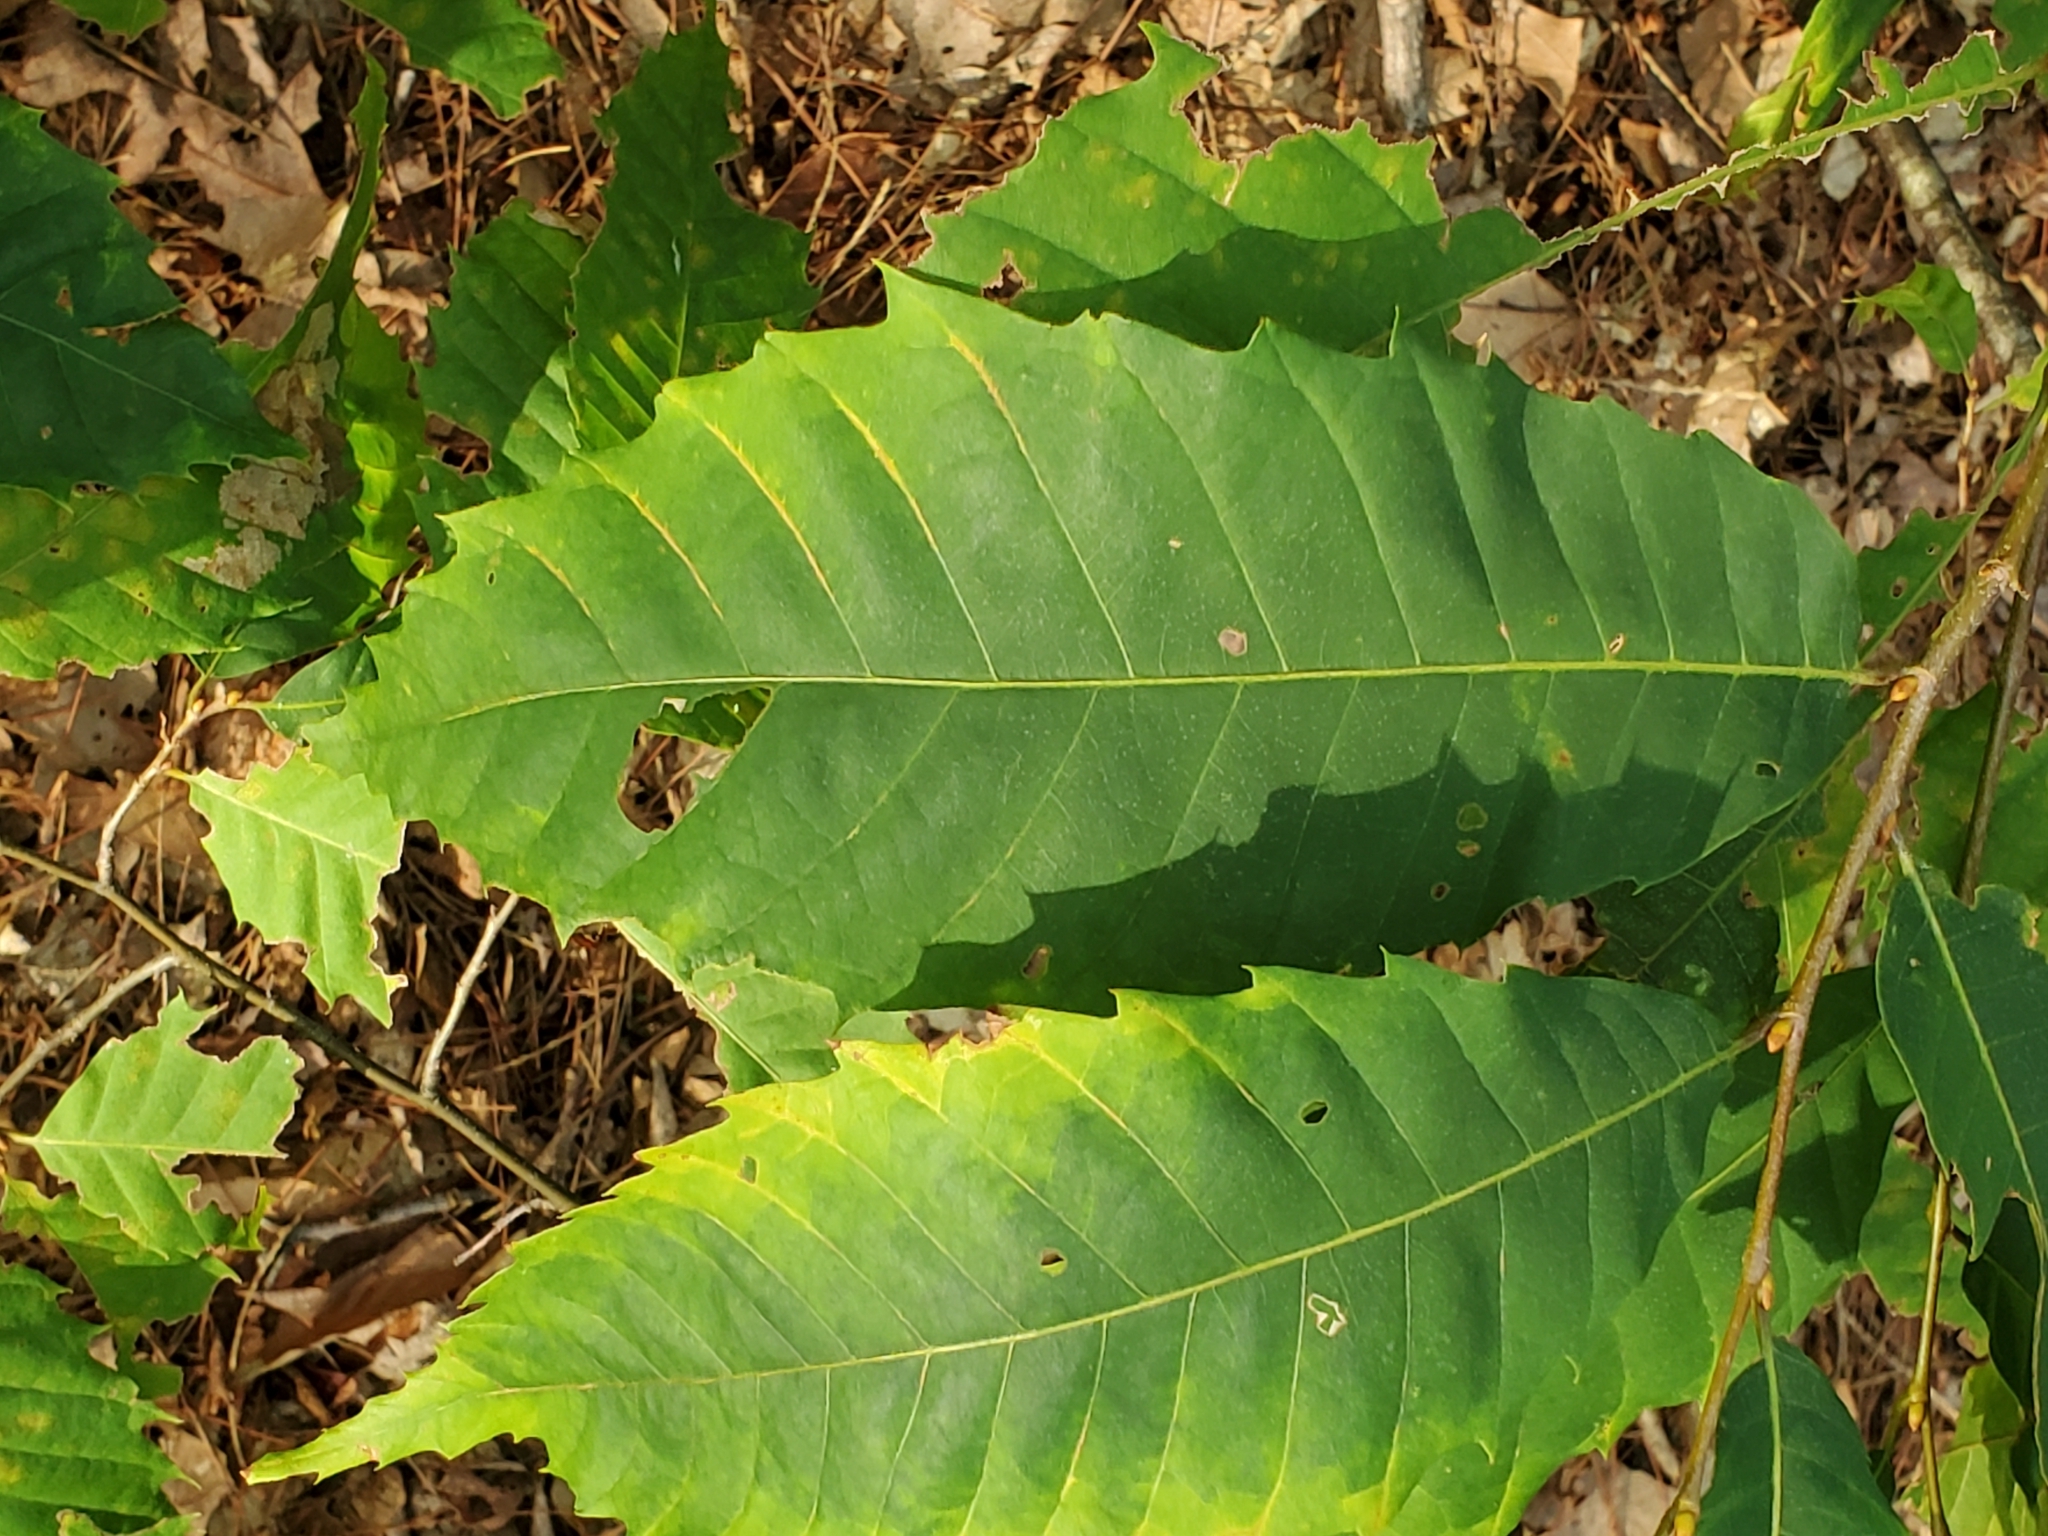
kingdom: Plantae
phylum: Tracheophyta
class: Magnoliopsida
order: Fagales
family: Fagaceae
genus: Castanea
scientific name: Castanea dentata
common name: American chestnut
